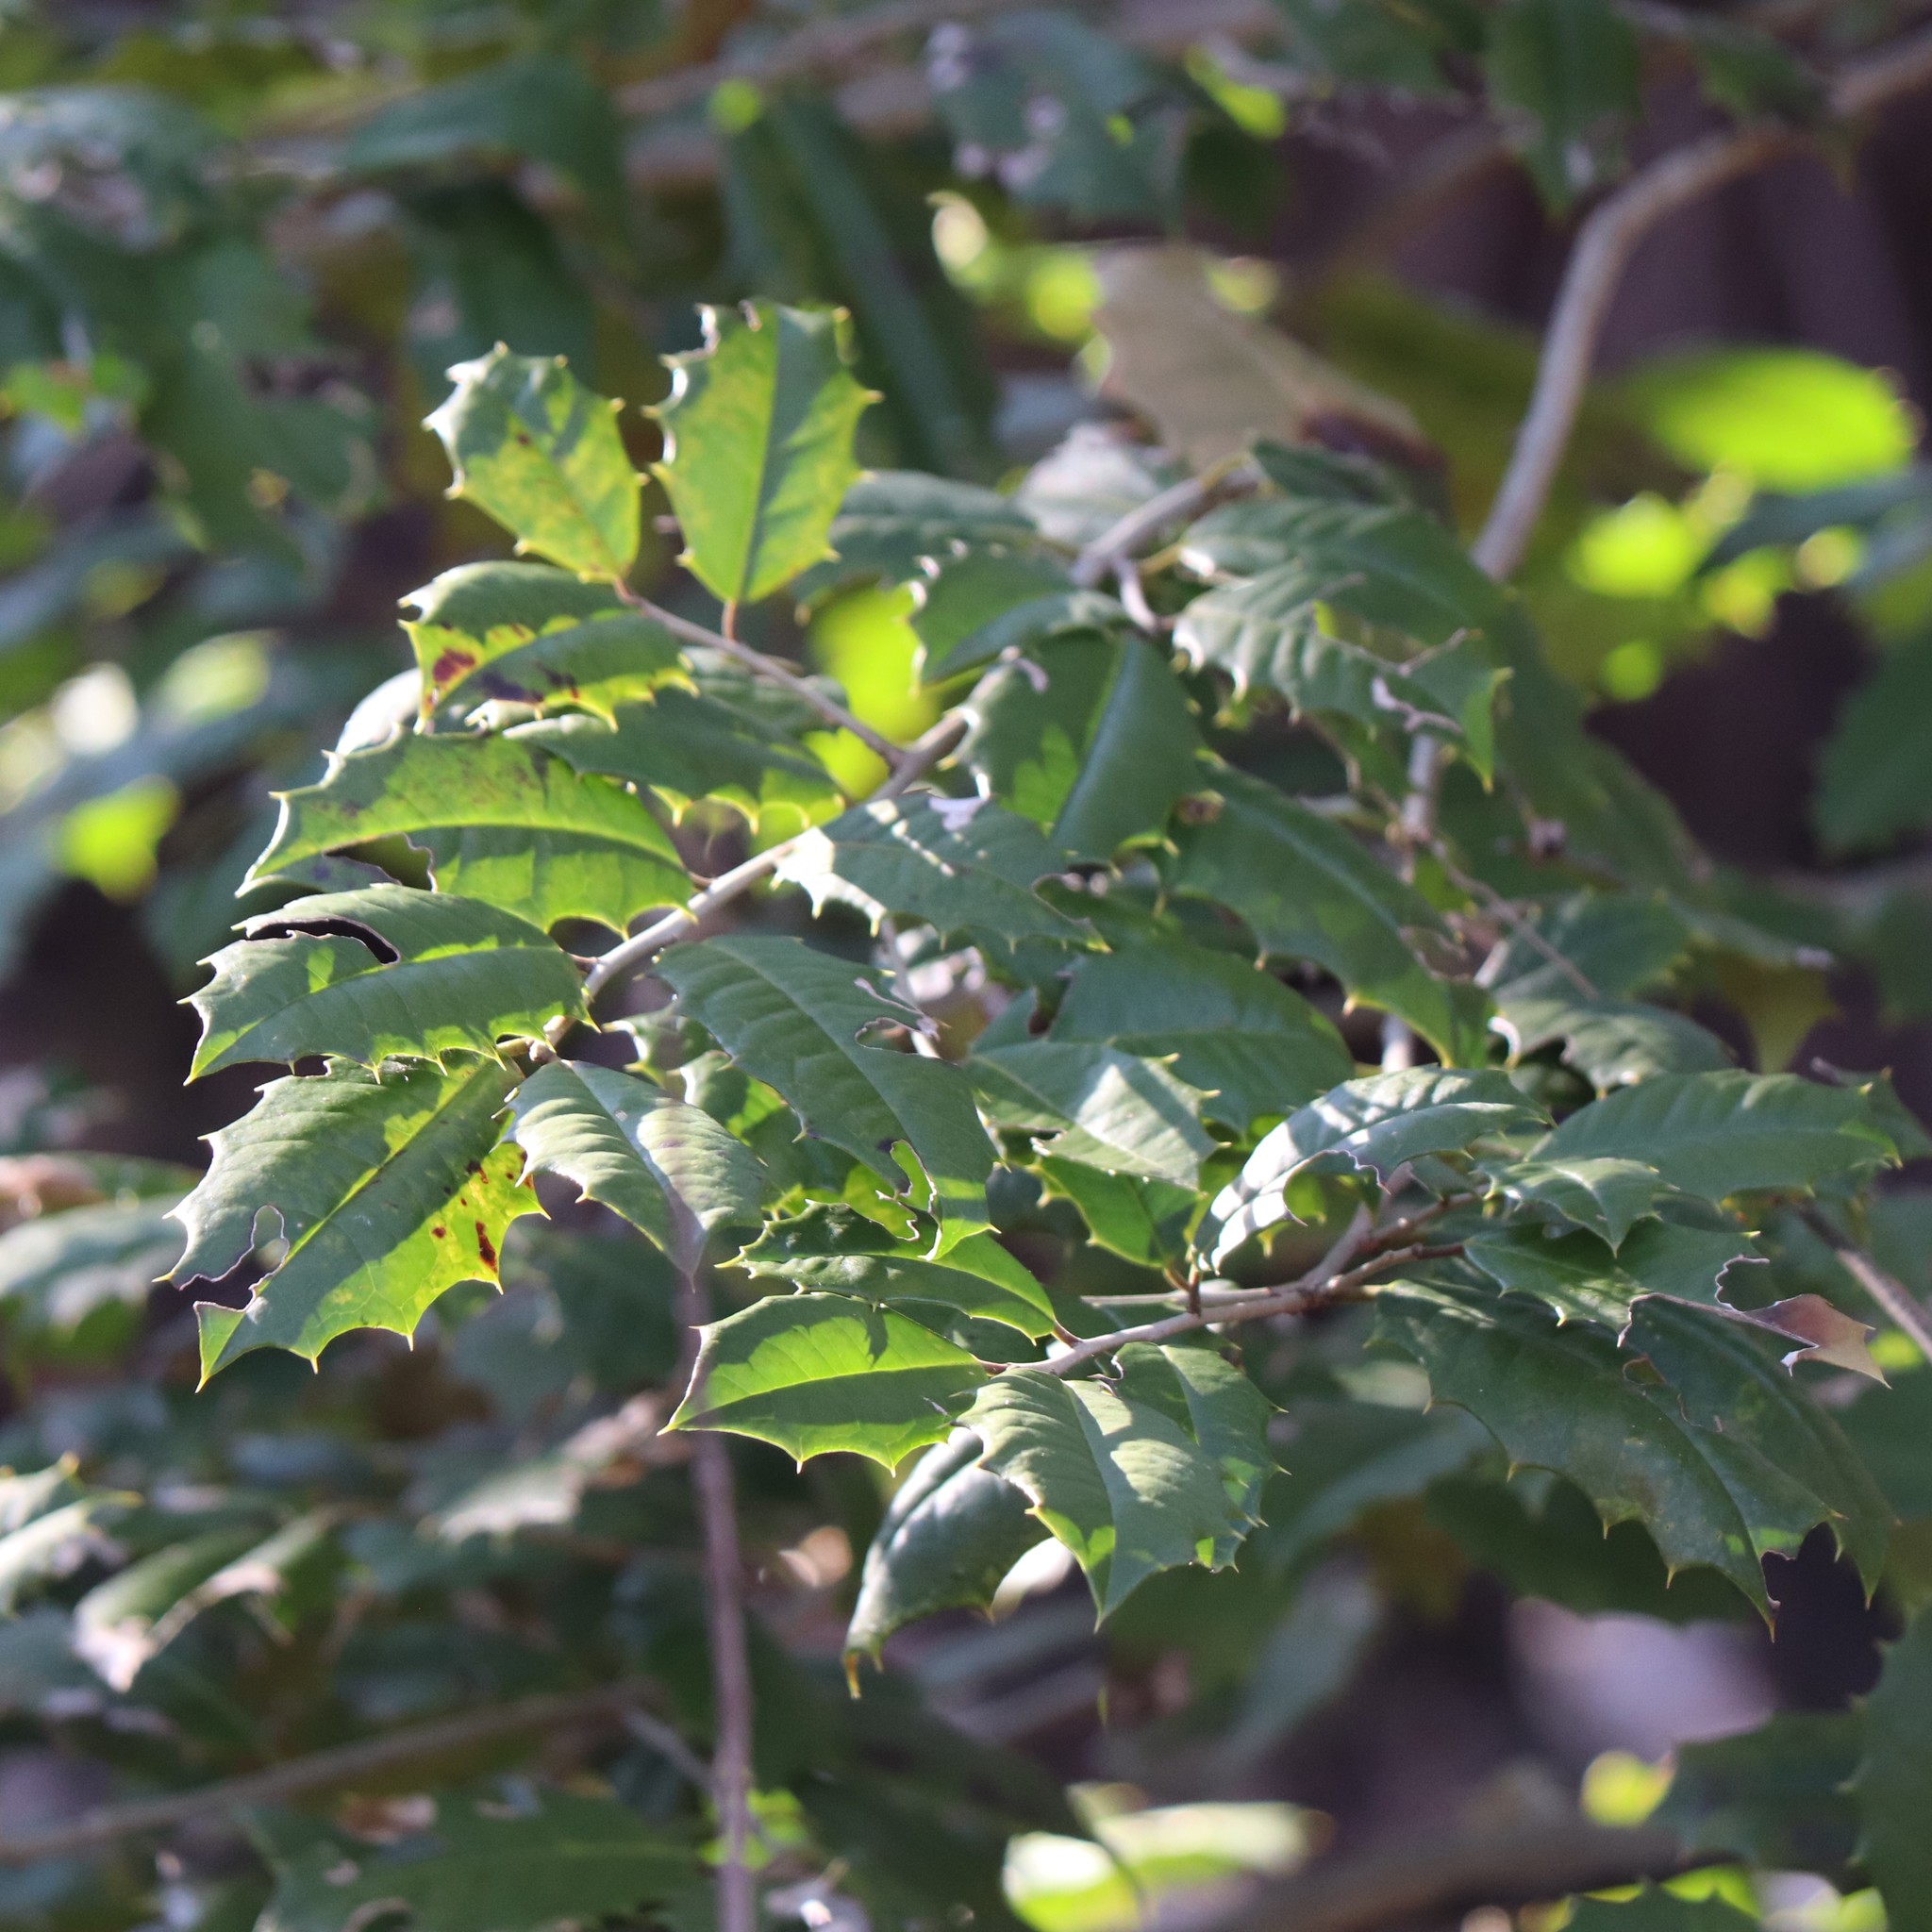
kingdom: Plantae
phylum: Tracheophyta
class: Magnoliopsida
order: Aquifoliales
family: Aquifoliaceae
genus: Ilex
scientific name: Ilex opaca
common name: American holly
